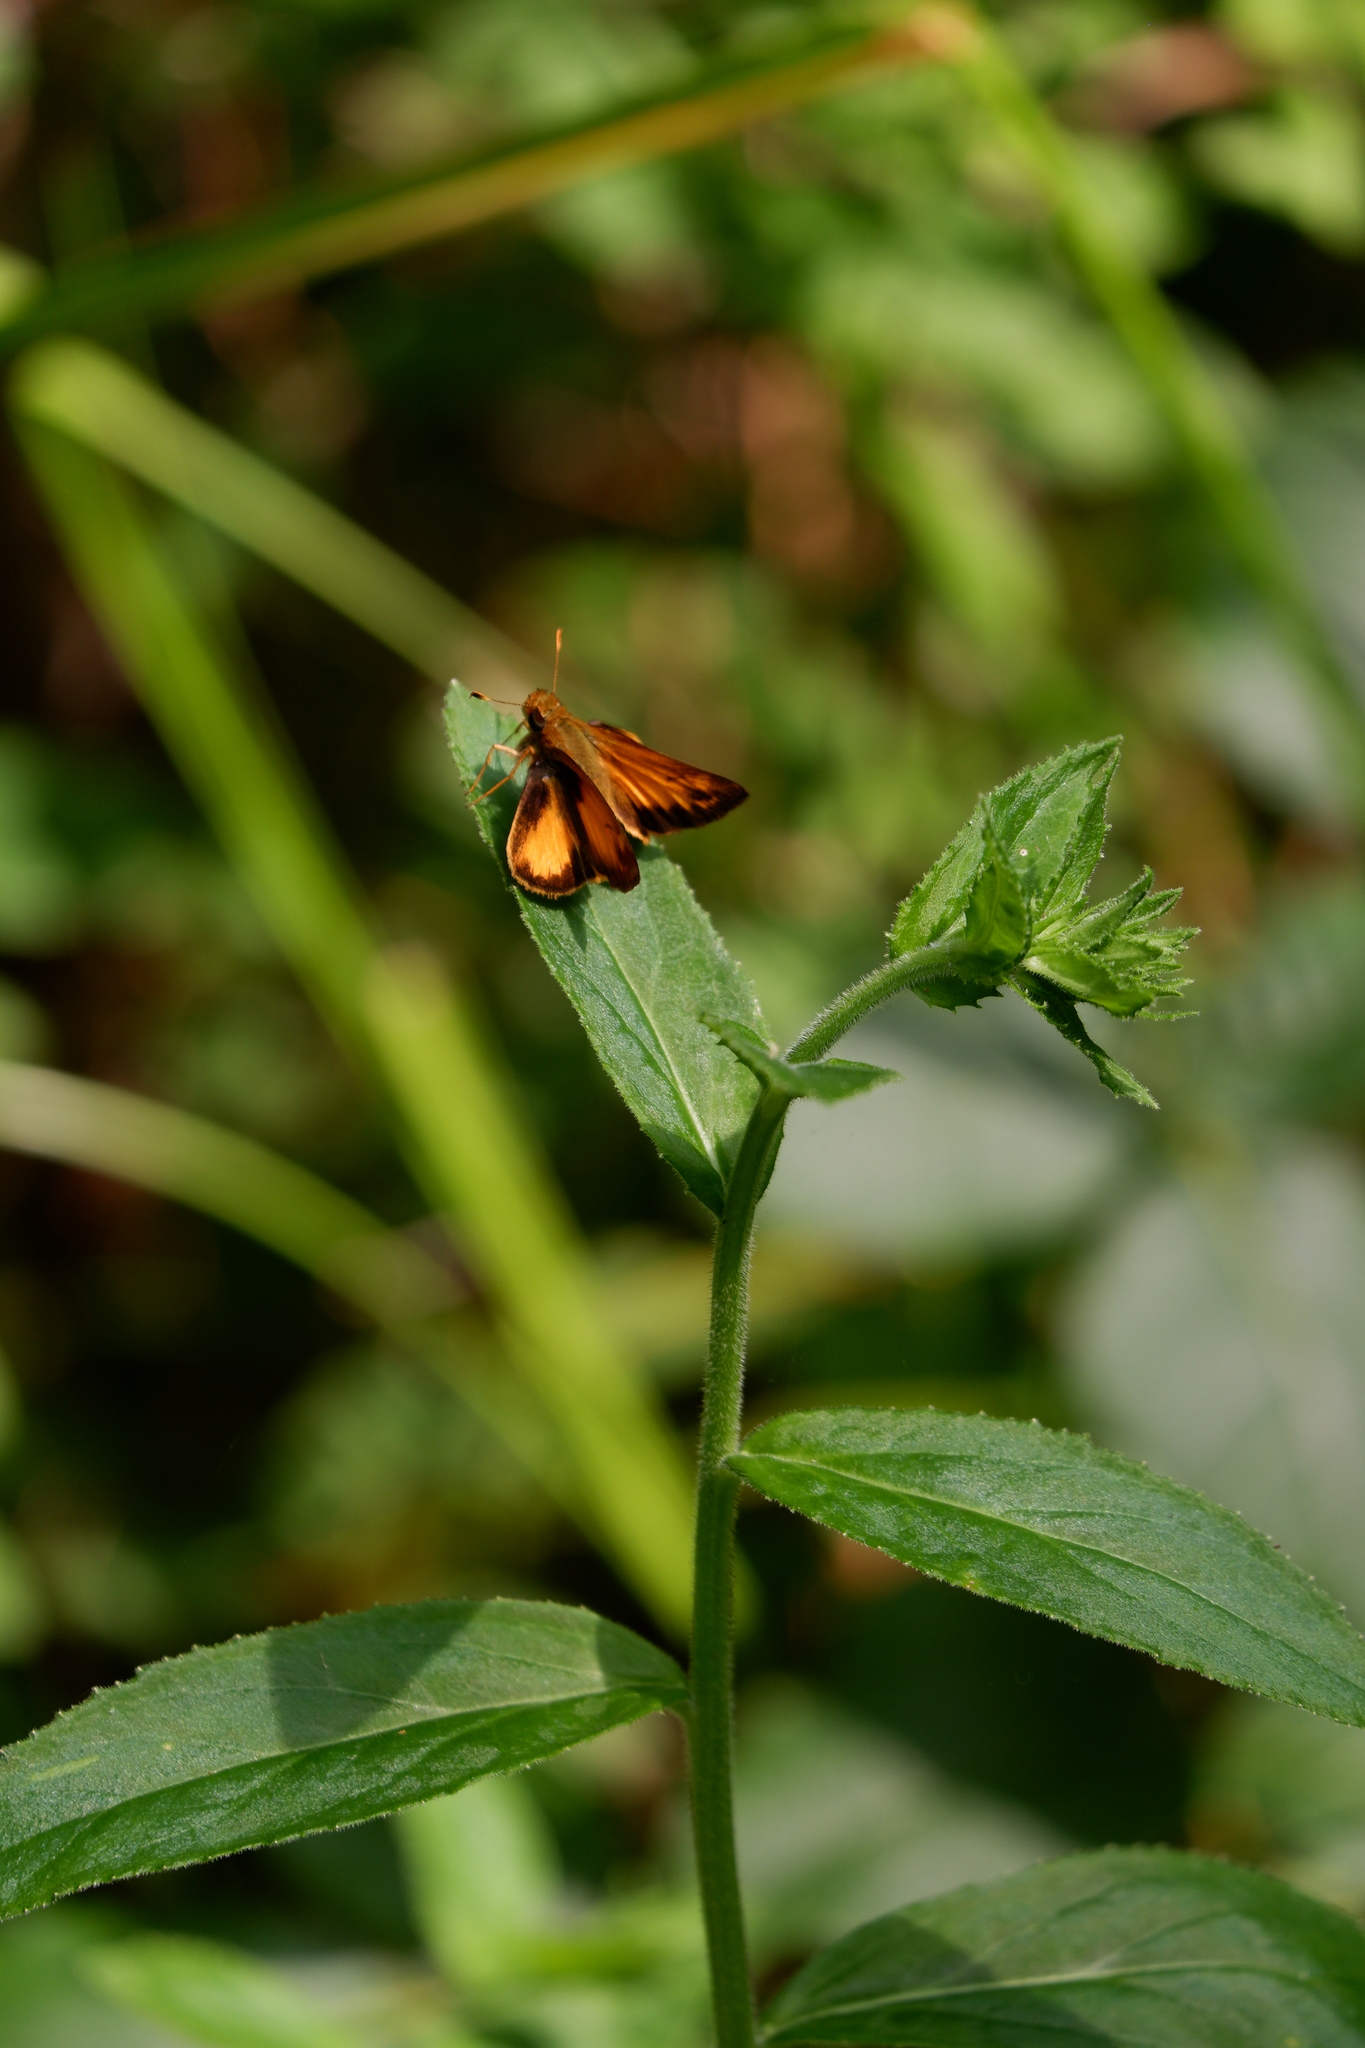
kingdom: Animalia
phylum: Arthropoda
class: Insecta
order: Lepidoptera
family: Hesperiidae
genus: Lon
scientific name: Lon zabulon
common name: Zabulon skipper
